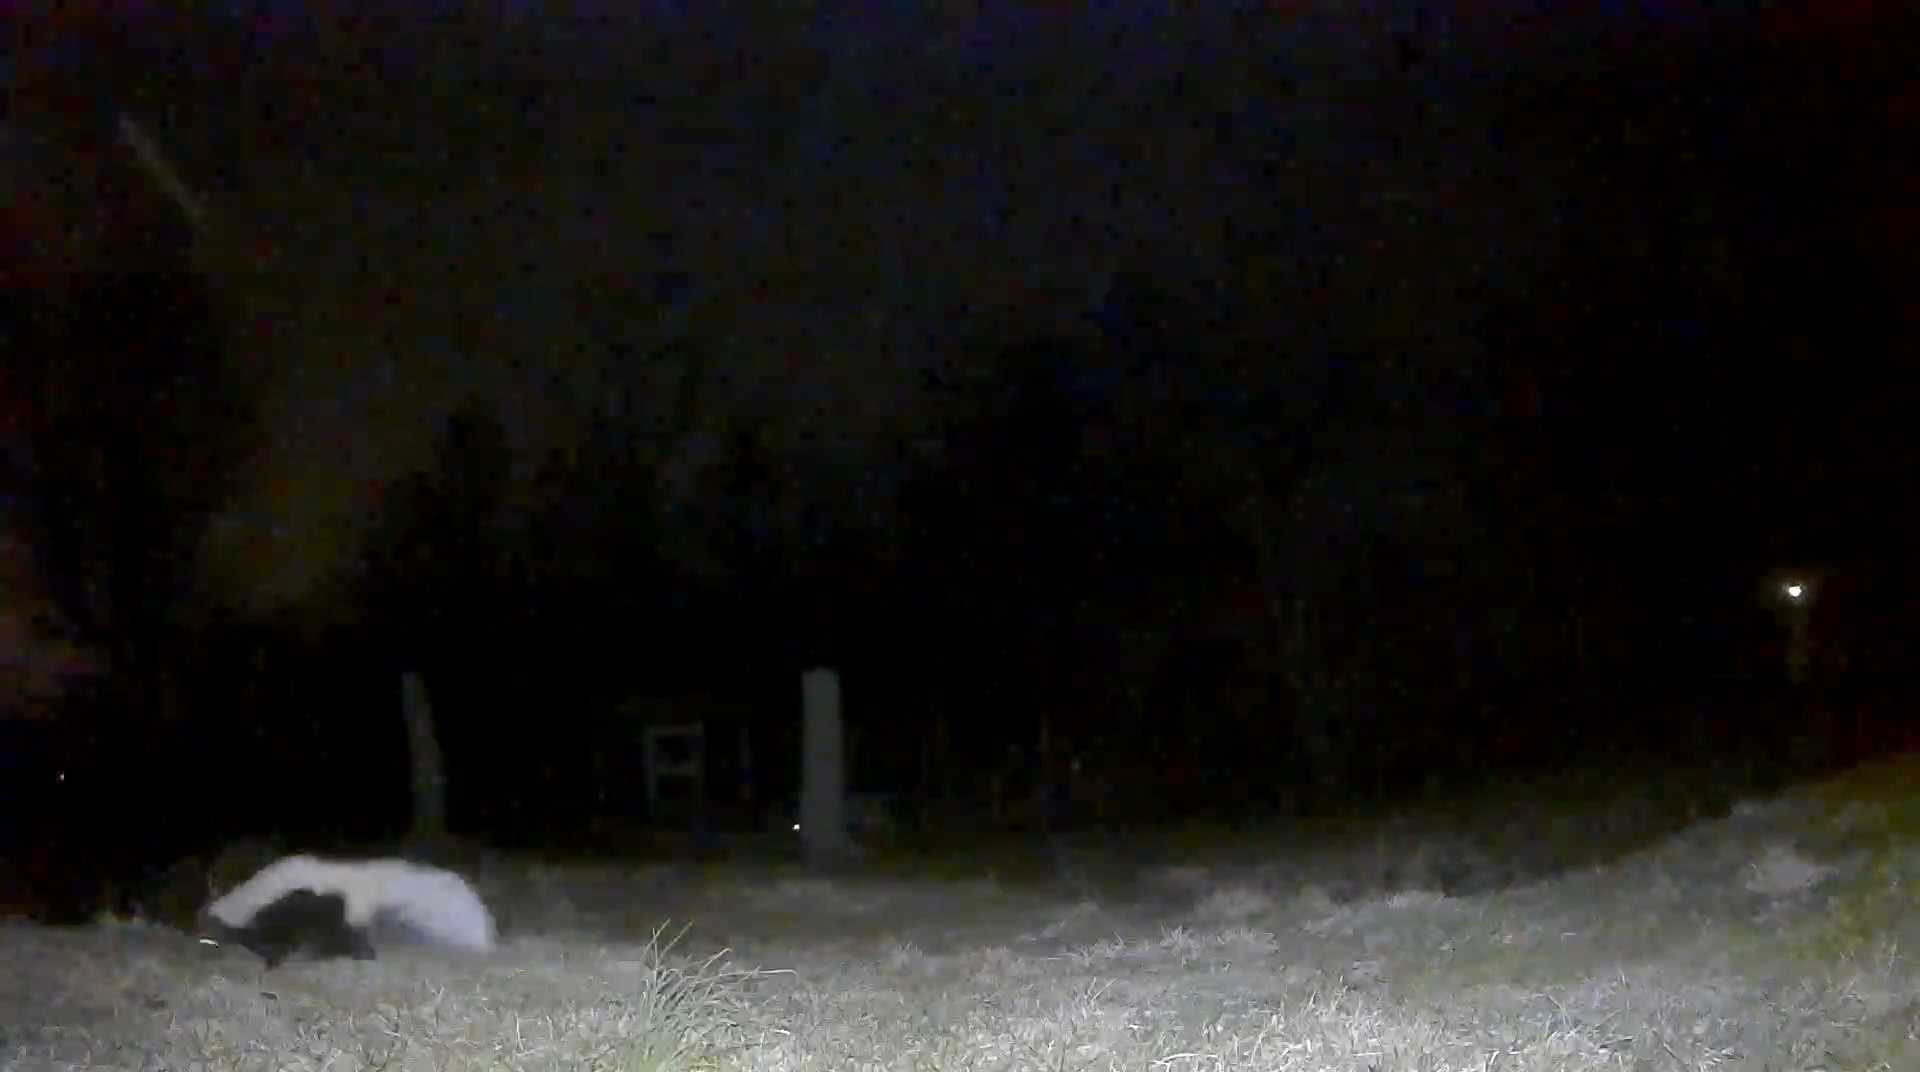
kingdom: Animalia
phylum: Chordata
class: Mammalia
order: Carnivora
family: Mephitidae
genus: Mephitis
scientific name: Mephitis mephitis
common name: Striped skunk
